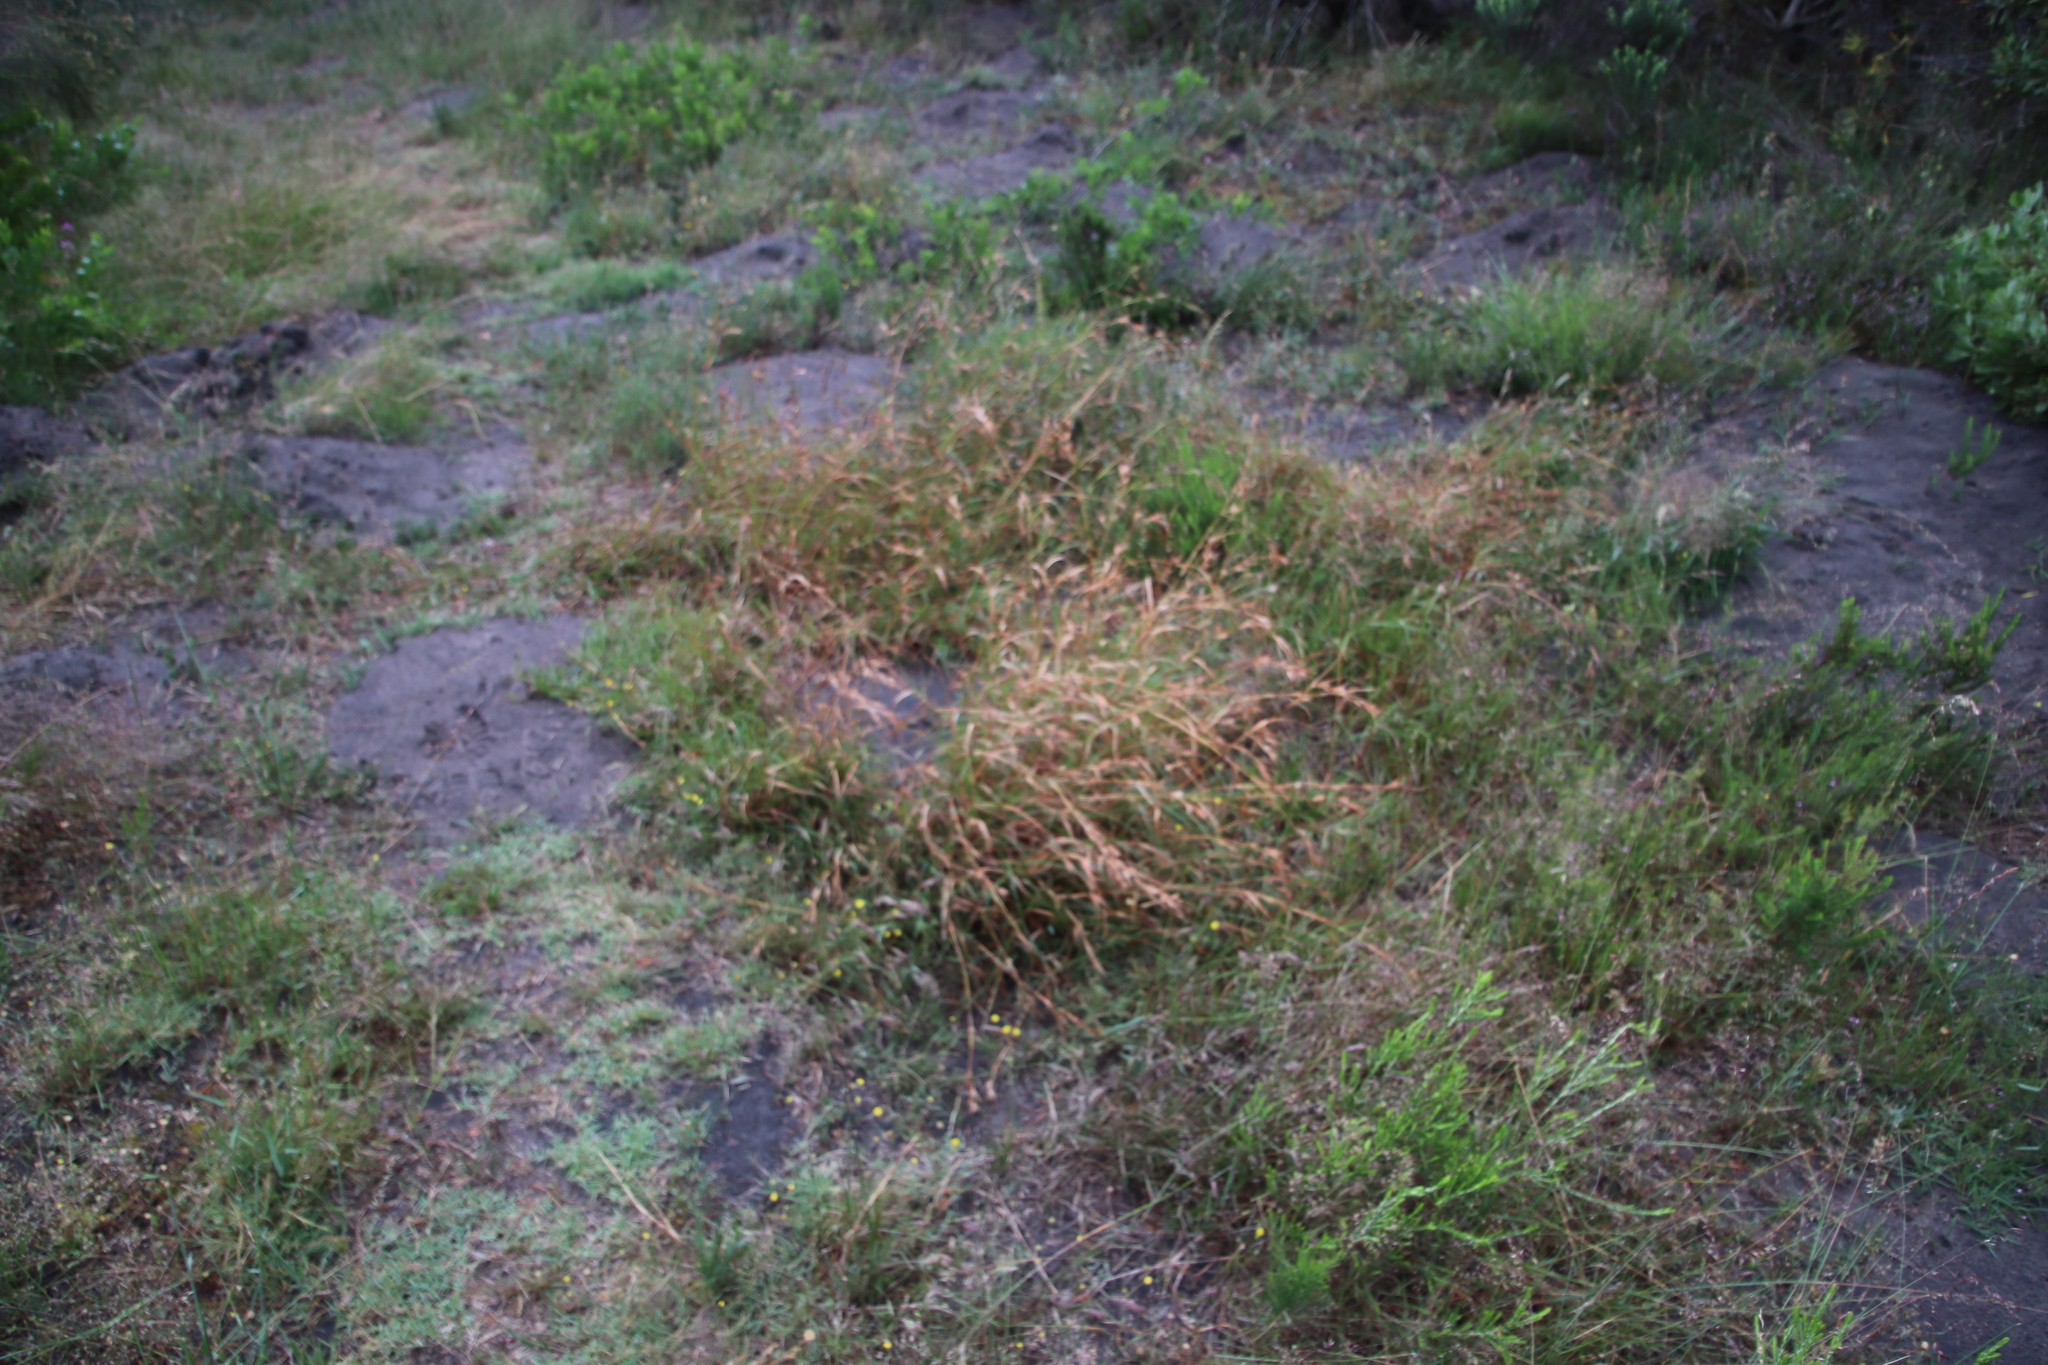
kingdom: Plantae
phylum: Tracheophyta
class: Liliopsida
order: Poales
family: Poaceae
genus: Themeda
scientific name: Themeda triandra
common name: Kangaroo grass
